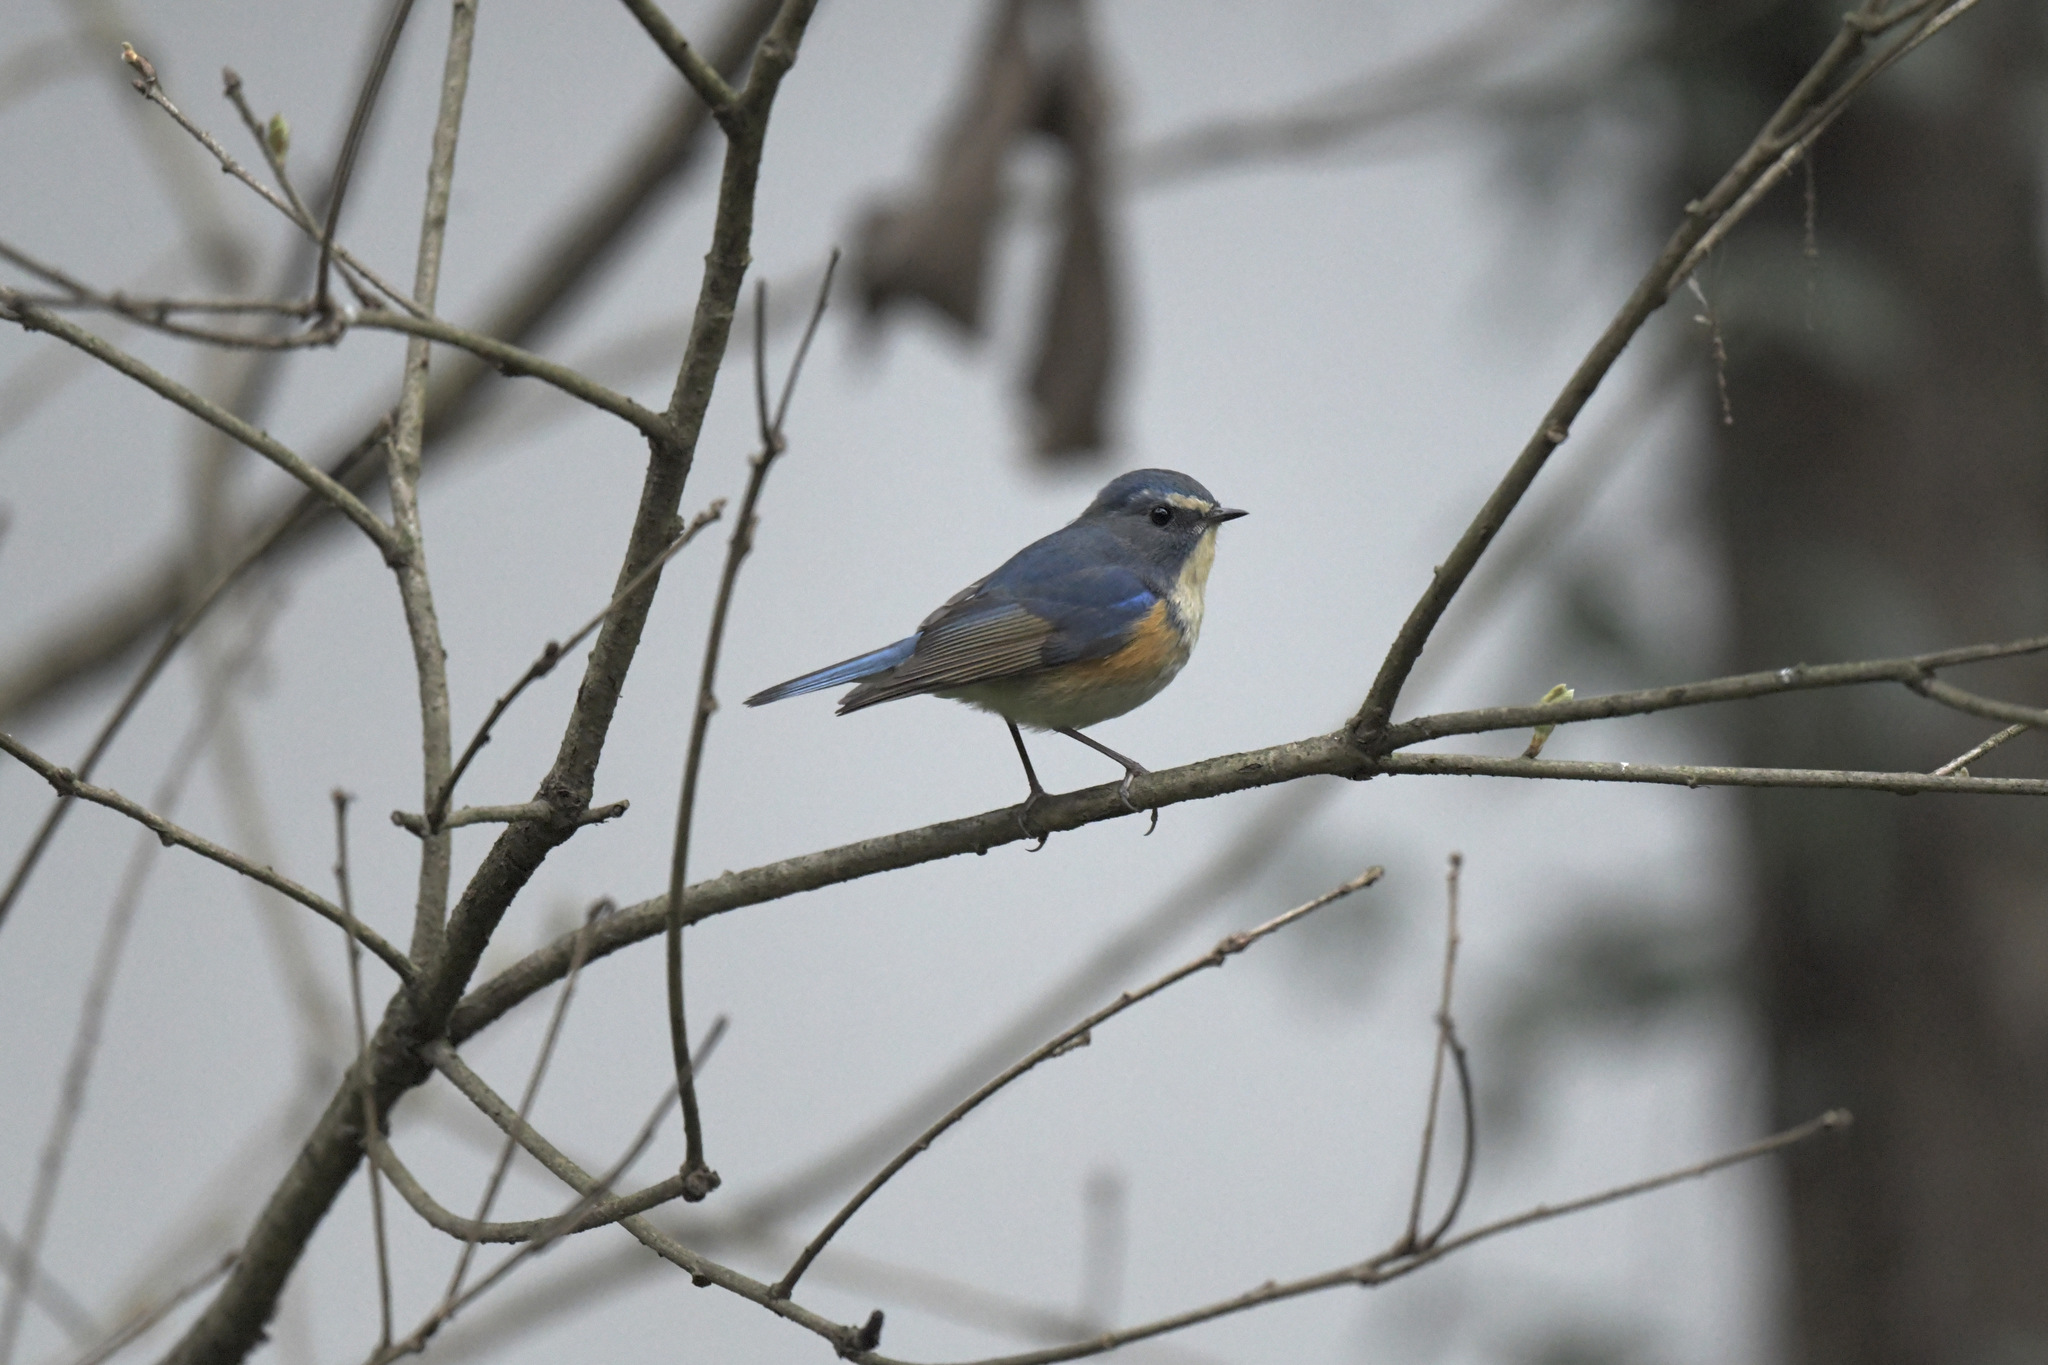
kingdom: Animalia
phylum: Chordata
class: Aves
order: Passeriformes
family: Muscicapidae
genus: Tarsiger
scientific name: Tarsiger cyanurus
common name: Red-flanked bluetail
